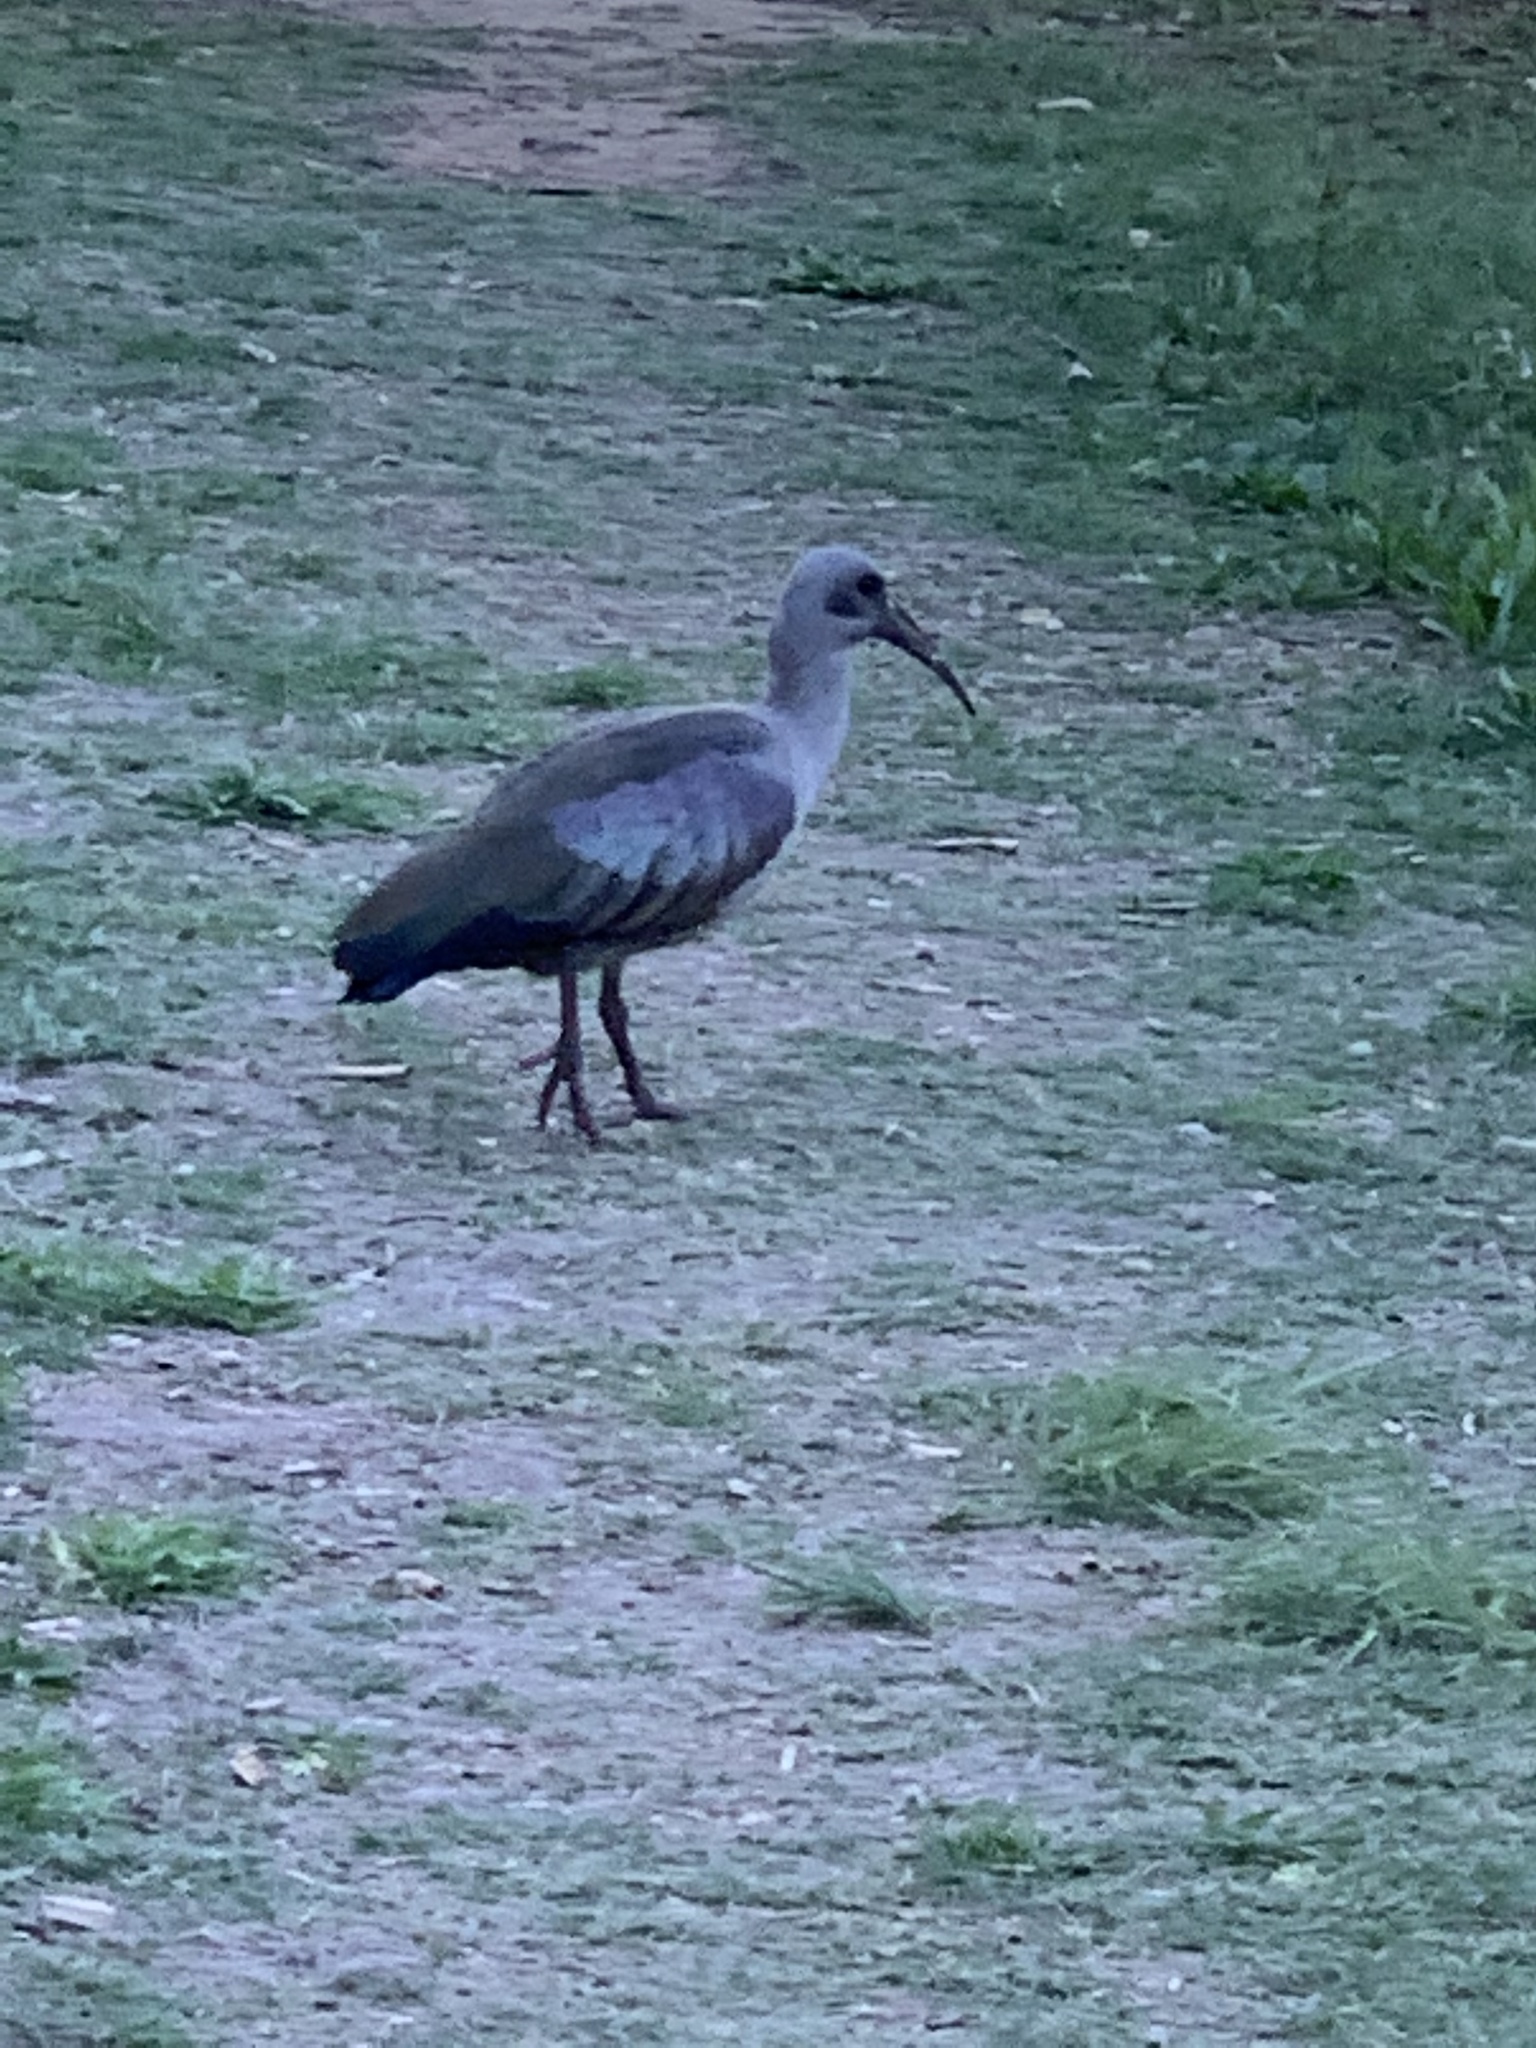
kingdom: Animalia
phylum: Chordata
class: Aves
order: Pelecaniformes
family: Threskiornithidae
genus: Bostrychia
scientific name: Bostrychia hagedash
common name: Hadada ibis
